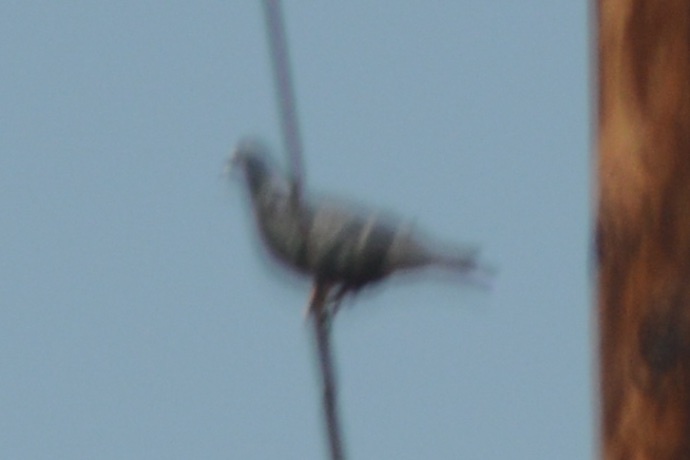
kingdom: Animalia
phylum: Chordata
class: Aves
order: Columbiformes
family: Columbidae
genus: Columba
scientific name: Columba livia
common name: Rock pigeon
